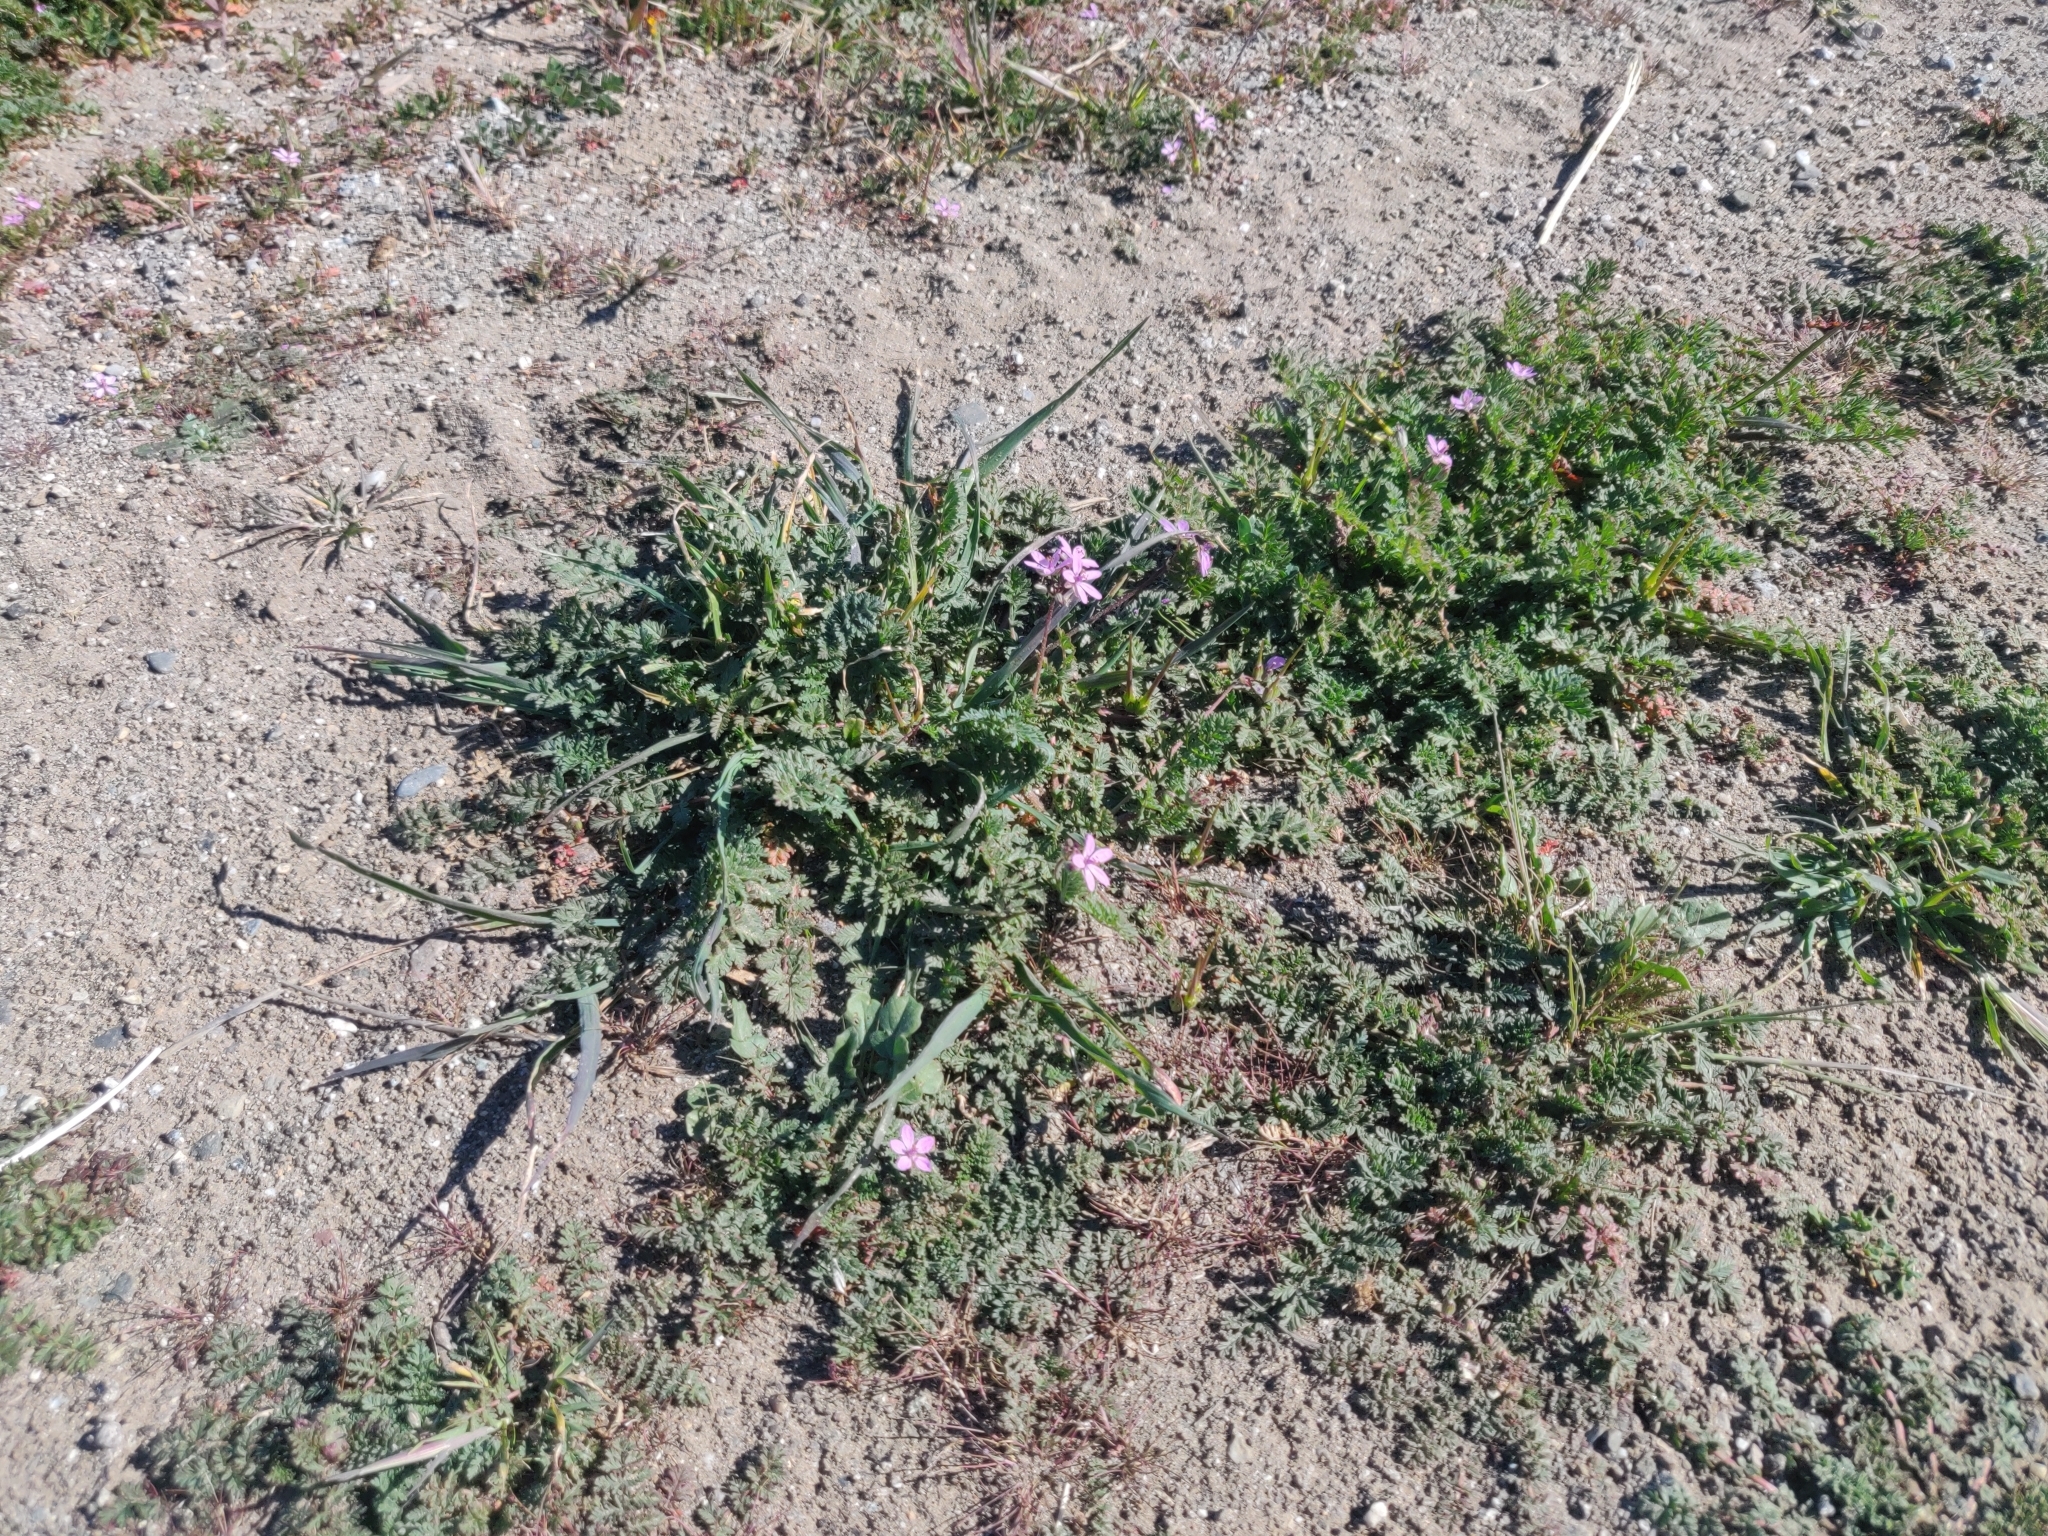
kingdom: Plantae
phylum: Tracheophyta
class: Magnoliopsida
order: Geraniales
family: Geraniaceae
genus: Erodium
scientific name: Erodium cicutarium
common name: Common stork's-bill
